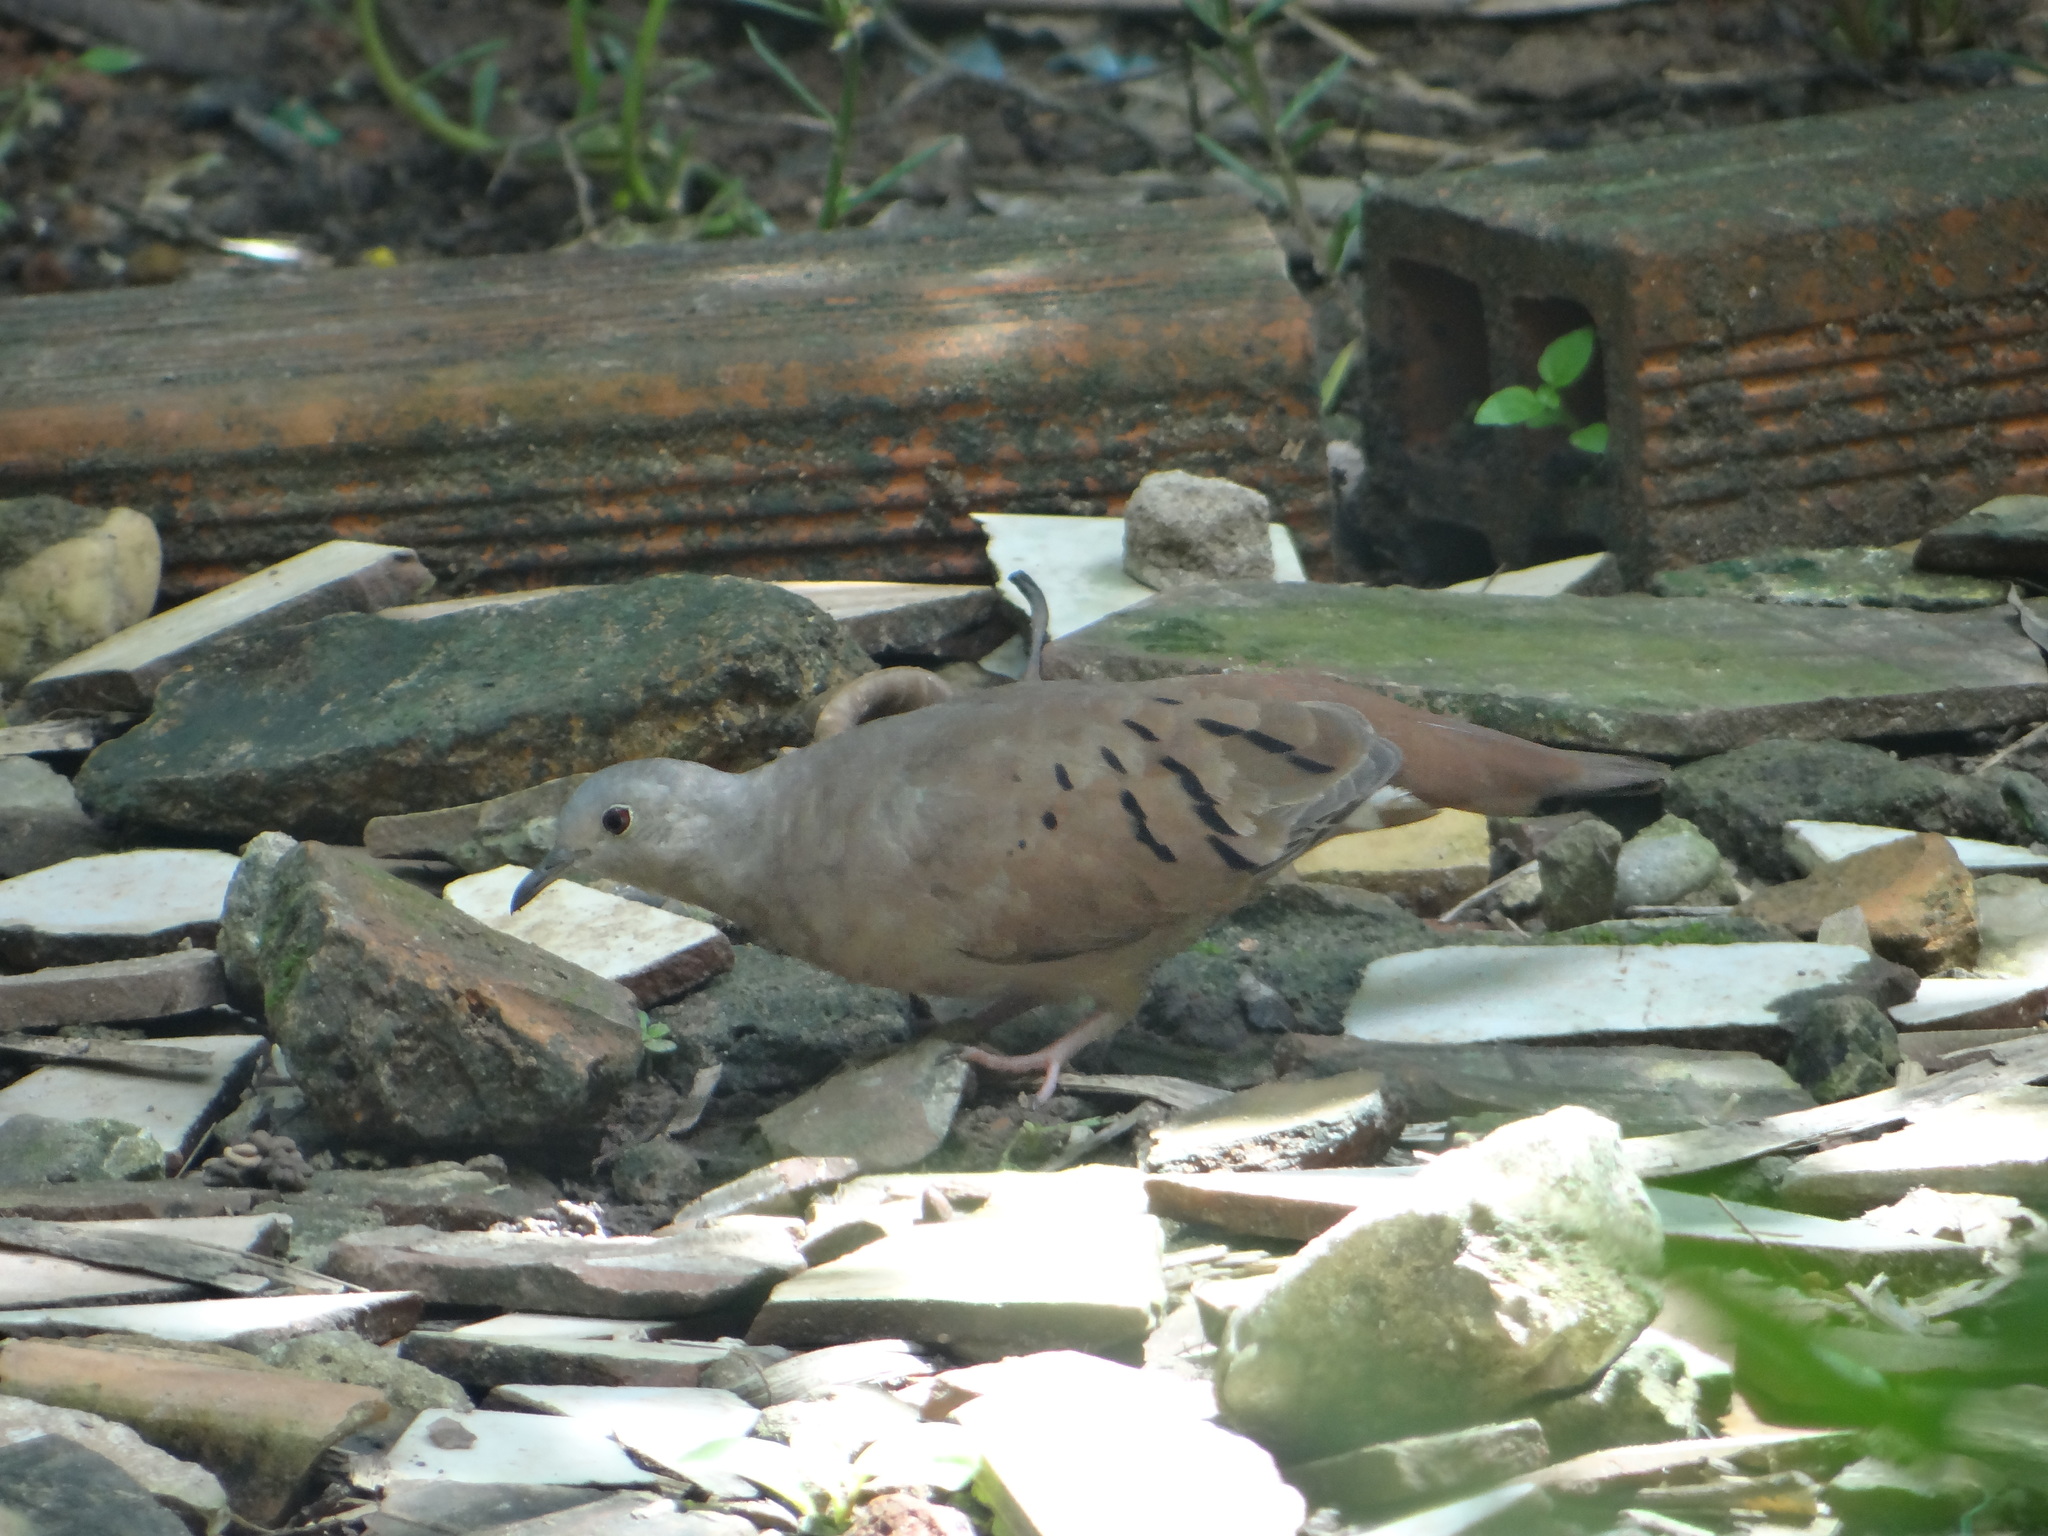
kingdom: Animalia
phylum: Chordata
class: Aves
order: Columbiformes
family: Columbidae
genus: Columbina
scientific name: Columbina talpacoti
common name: Ruddy ground dove
